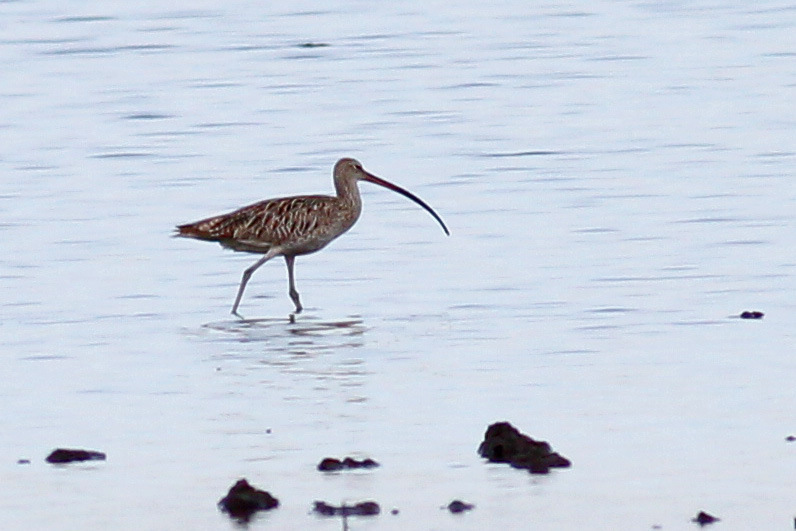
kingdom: Animalia
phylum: Chordata
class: Aves
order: Charadriiformes
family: Scolopacidae
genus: Numenius
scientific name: Numenius arquata
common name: Eurasian curlew
